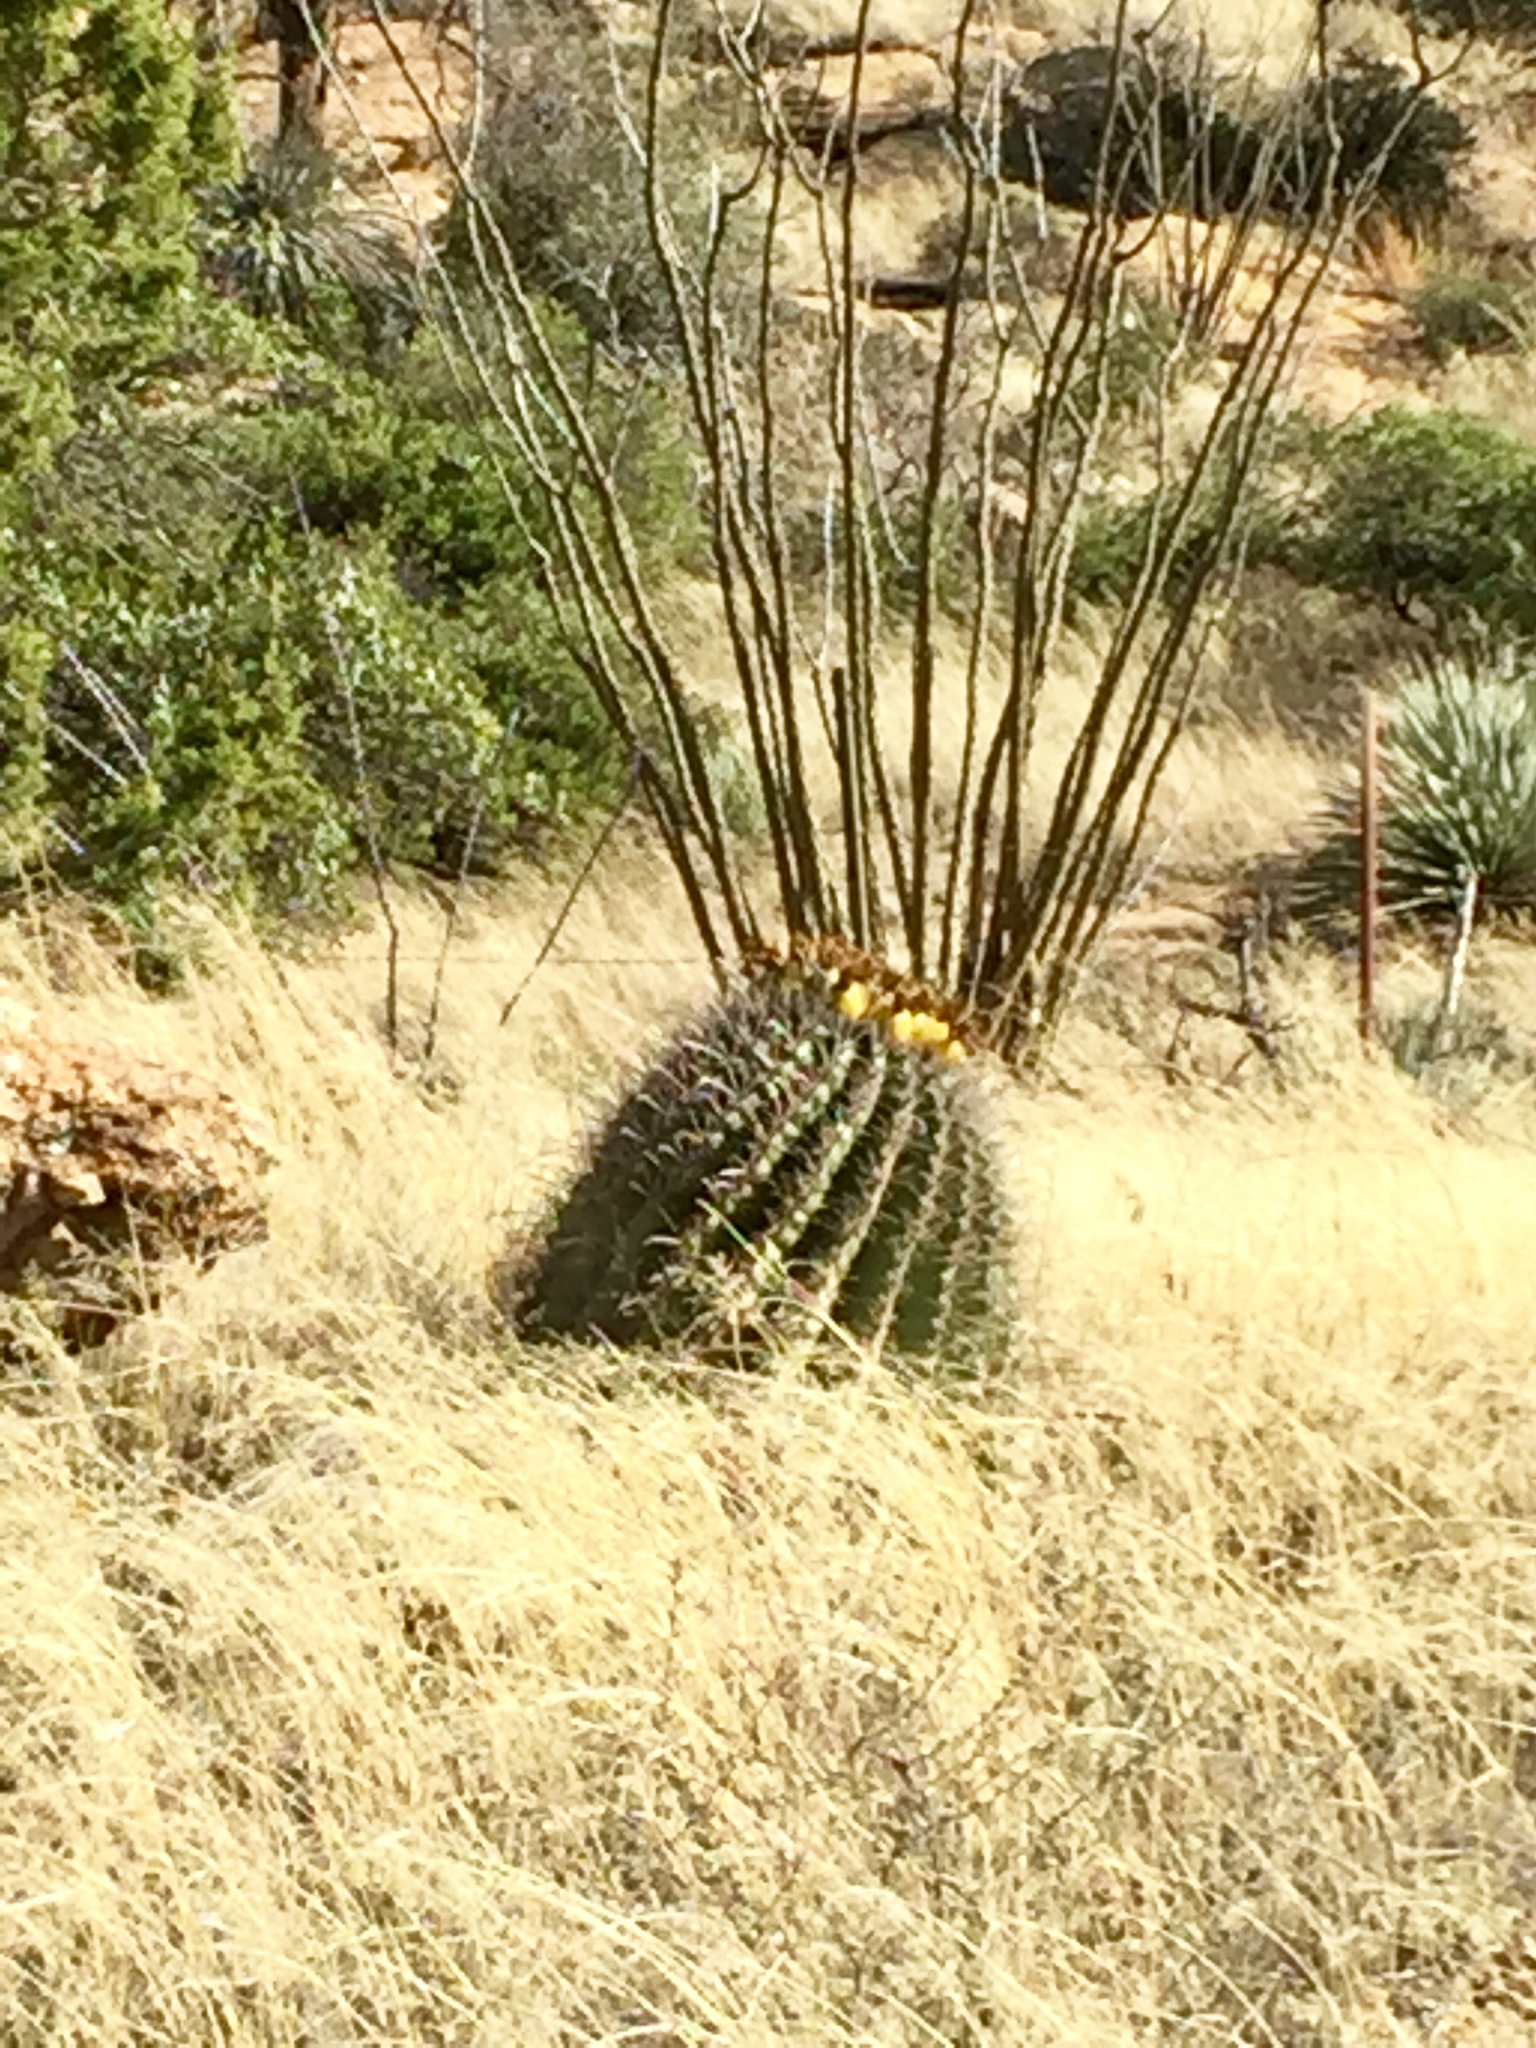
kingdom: Plantae
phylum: Tracheophyta
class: Magnoliopsida
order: Caryophyllales
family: Cactaceae
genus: Ferocactus
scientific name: Ferocactus wislizeni
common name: Candy barrel cactus
